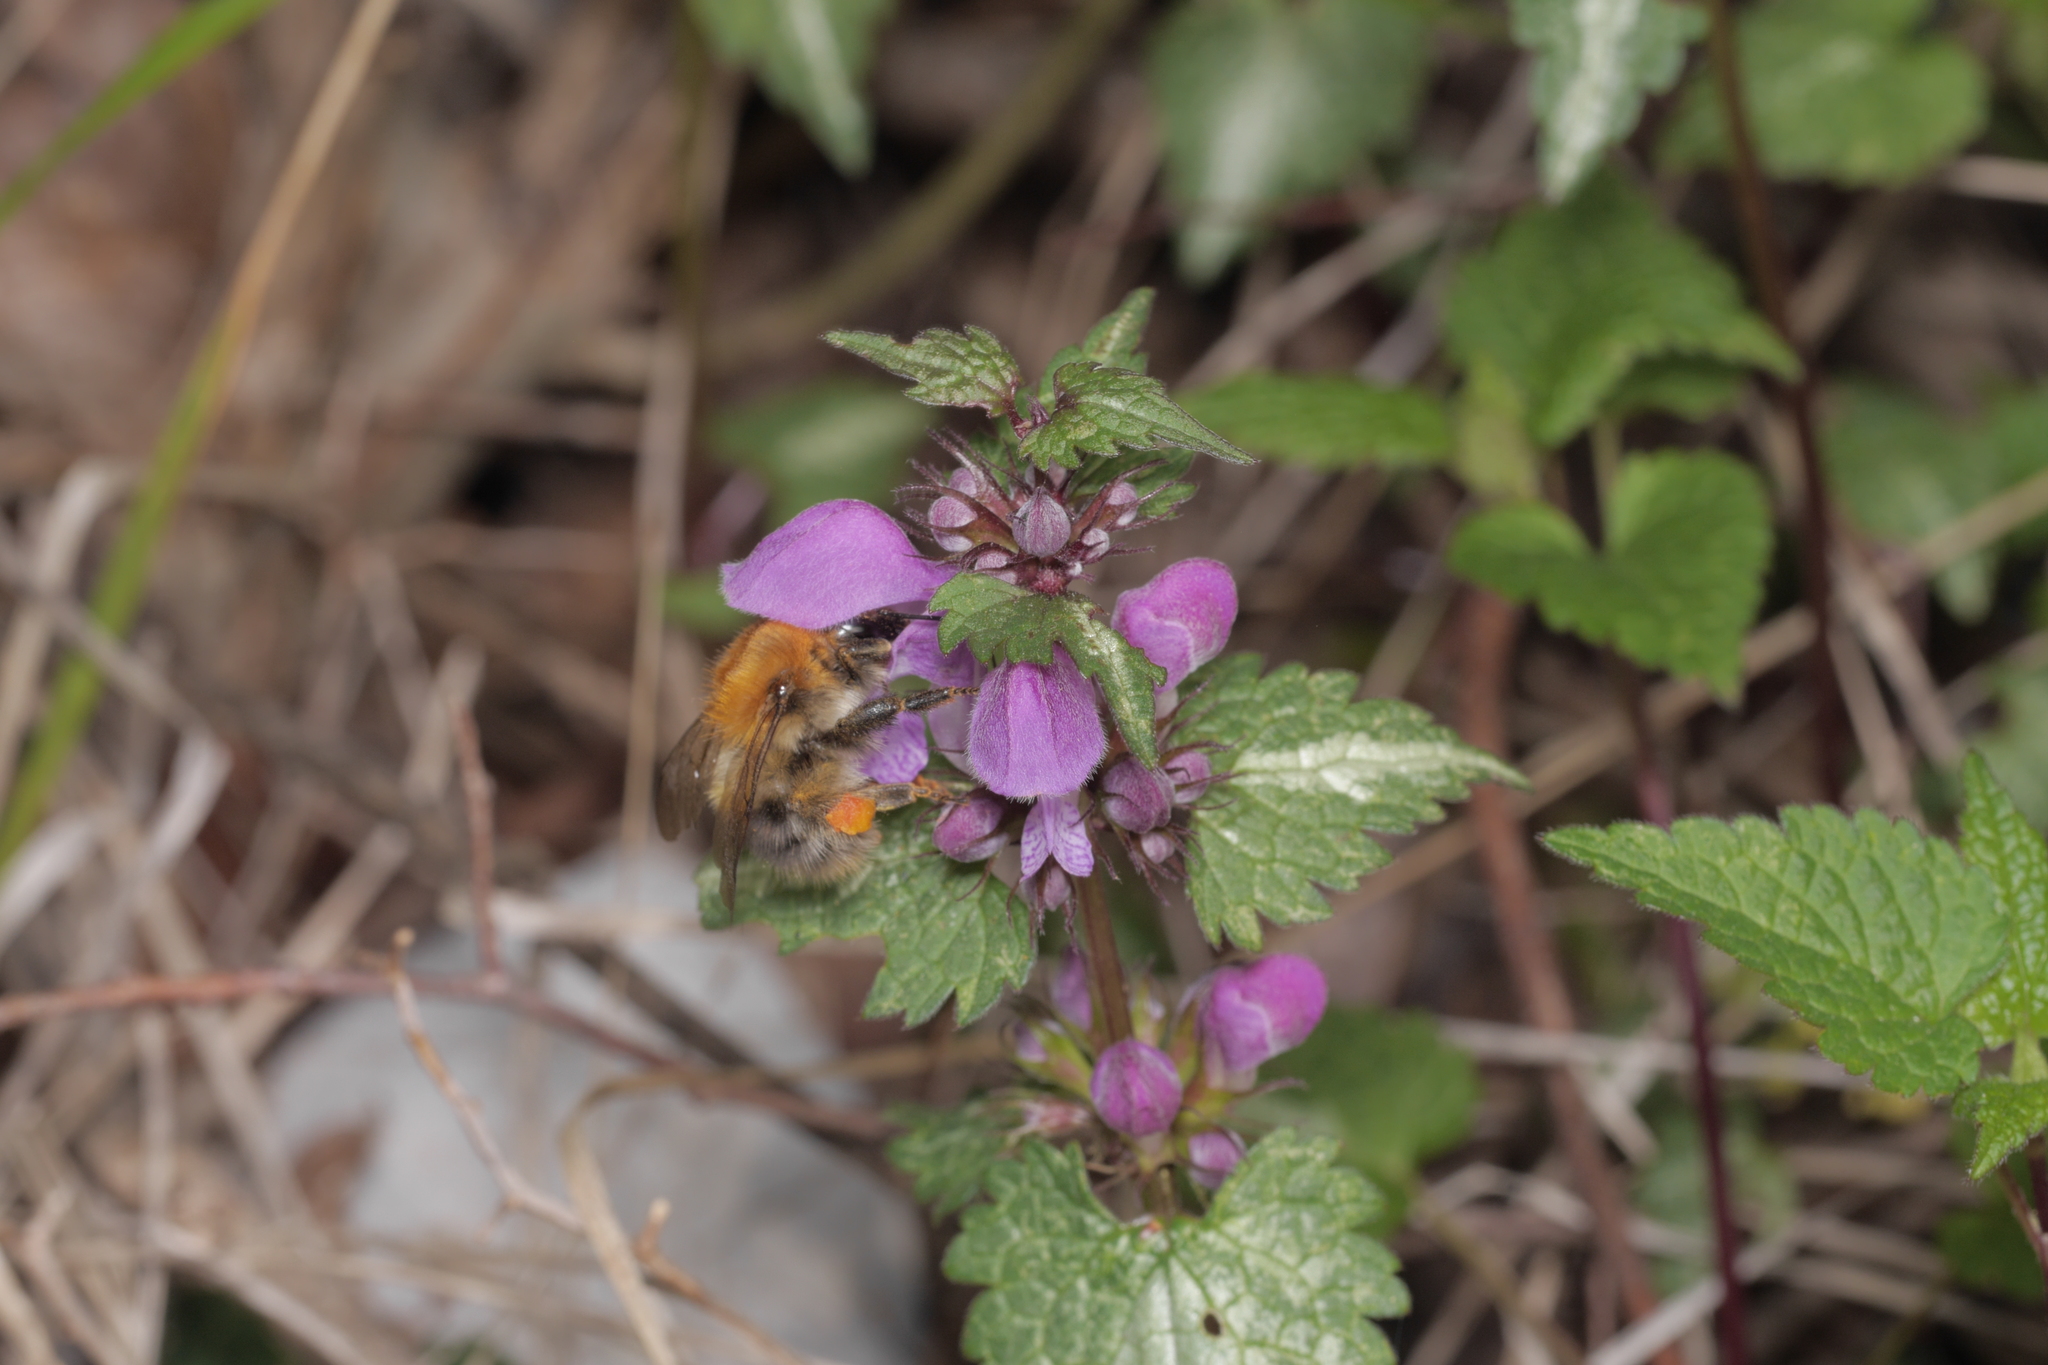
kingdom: Animalia
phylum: Arthropoda
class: Insecta
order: Hymenoptera
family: Apidae
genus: Bombus
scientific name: Bombus pascuorum
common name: Common carder bee
